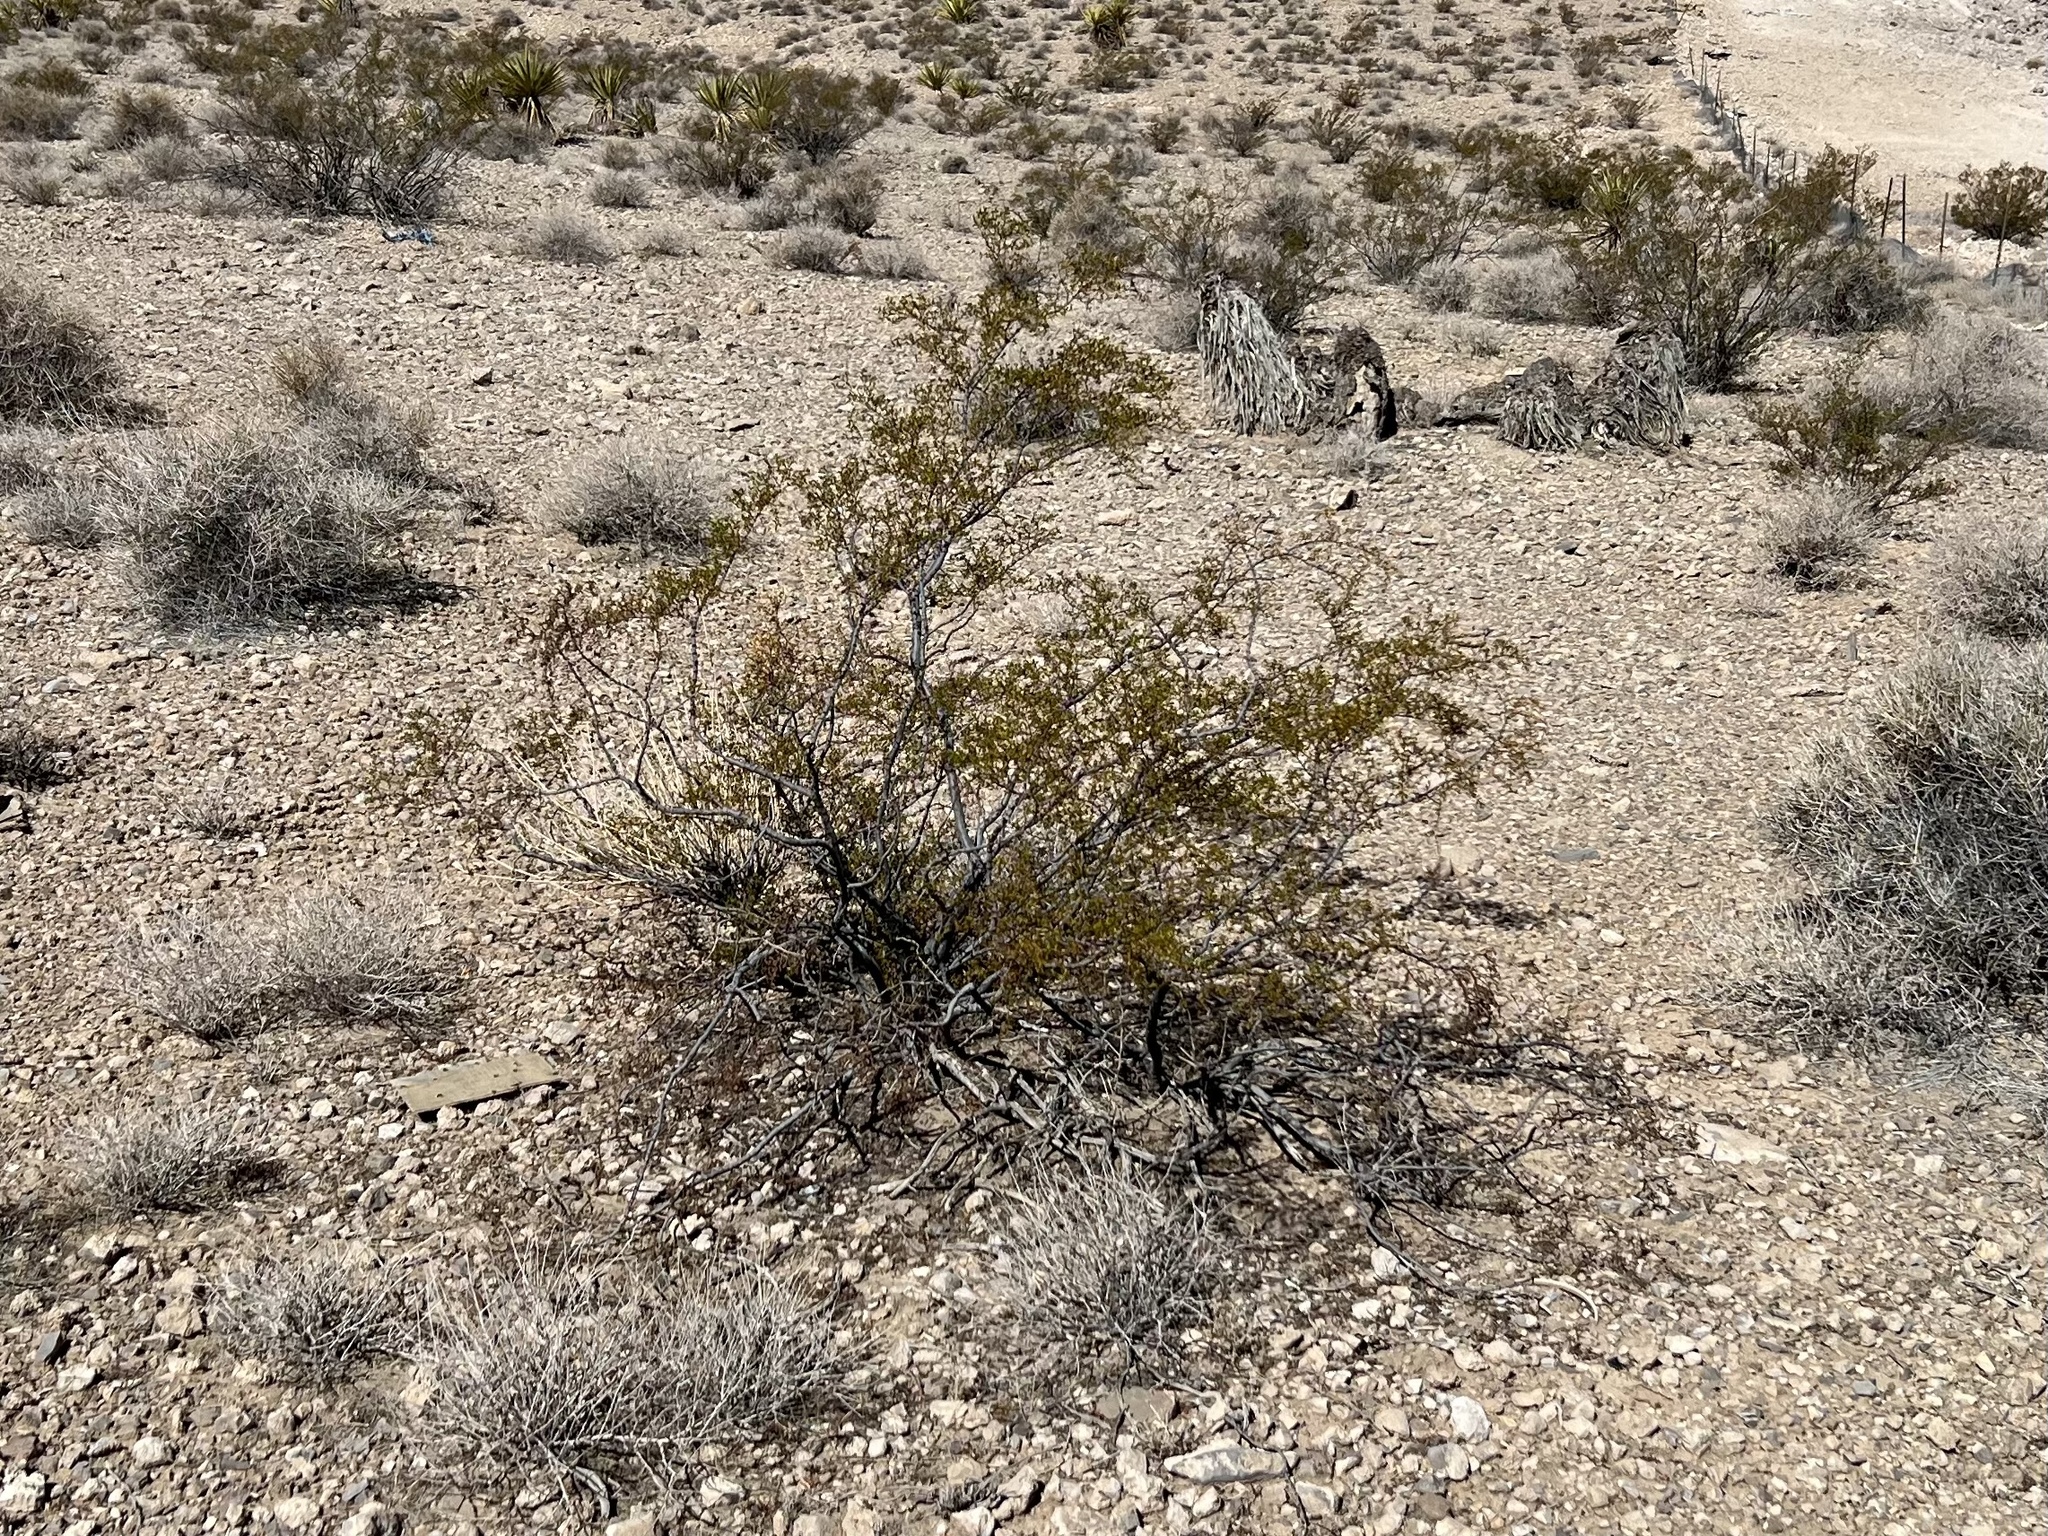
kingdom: Plantae
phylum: Tracheophyta
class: Magnoliopsida
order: Zygophyllales
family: Zygophyllaceae
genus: Larrea
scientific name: Larrea tridentata
